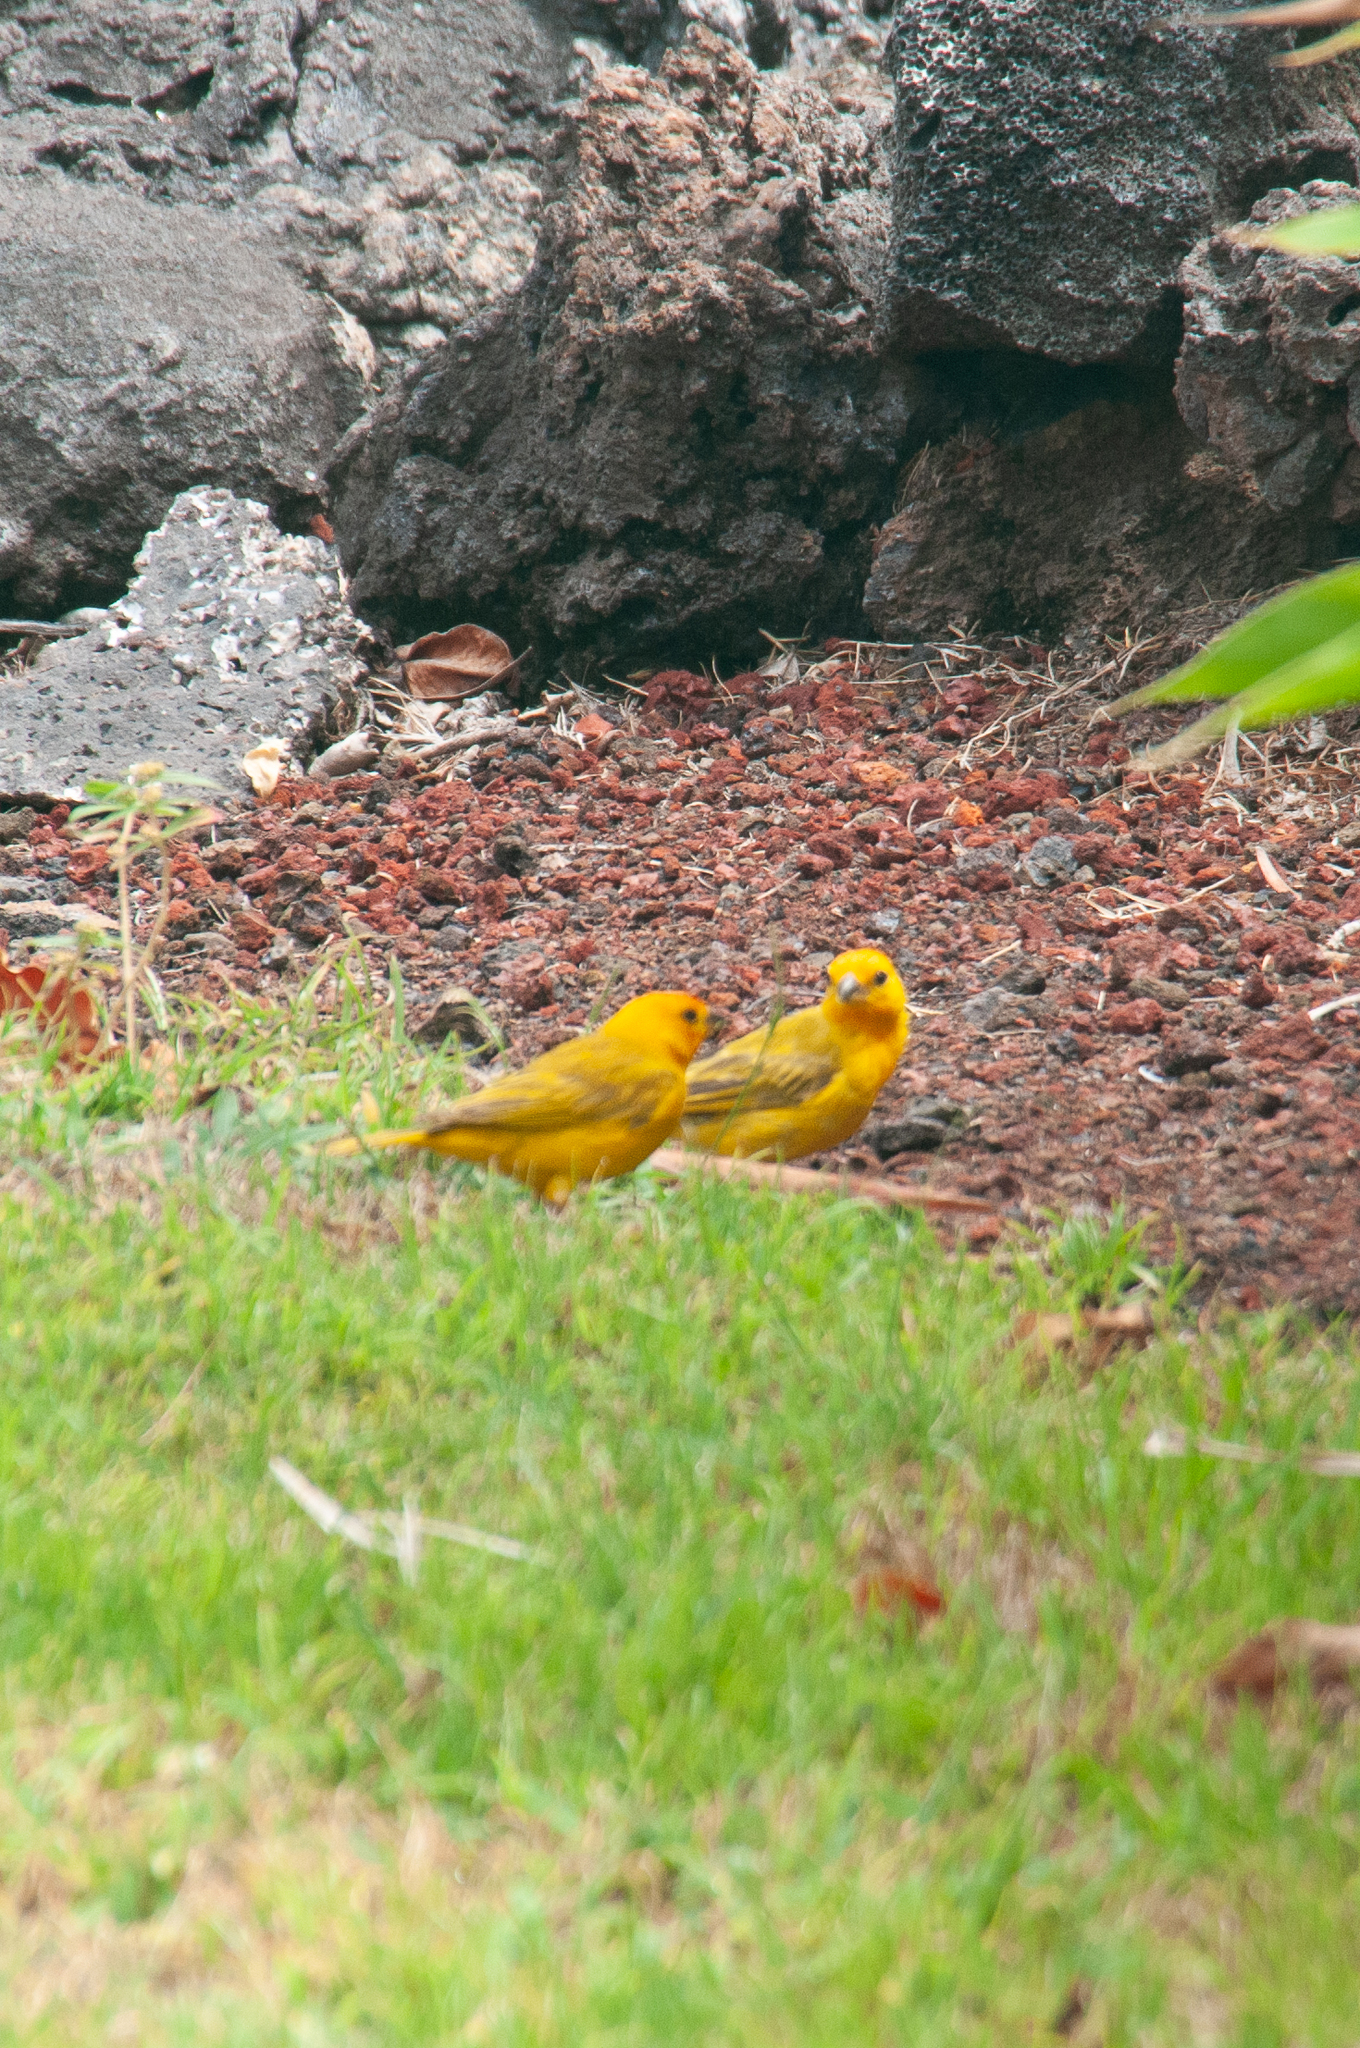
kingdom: Animalia
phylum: Chordata
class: Aves
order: Passeriformes
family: Thraupidae
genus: Sicalis
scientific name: Sicalis flaveola
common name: Saffron finch
